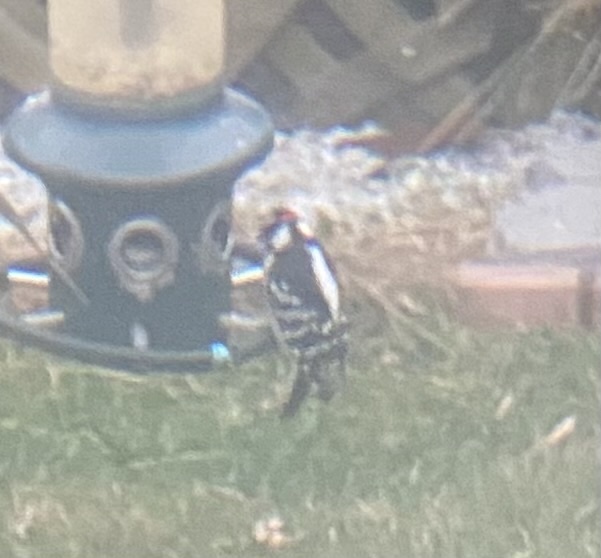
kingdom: Animalia
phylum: Chordata
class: Aves
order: Piciformes
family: Picidae
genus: Dryobates
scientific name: Dryobates pubescens
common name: Downy woodpecker
